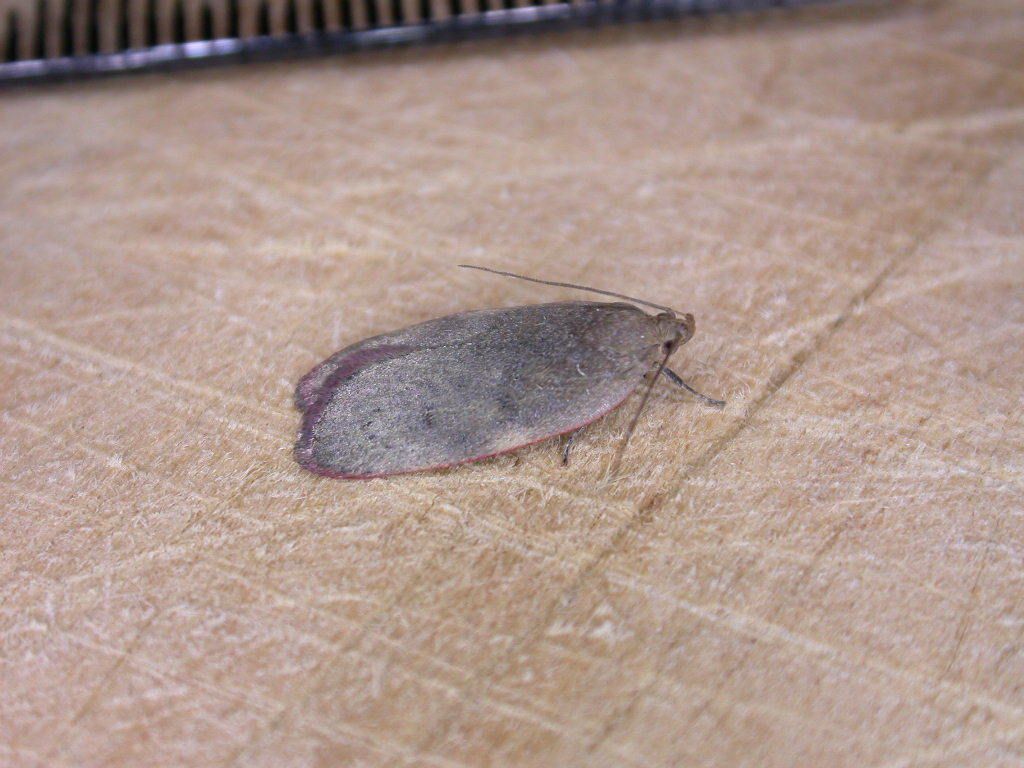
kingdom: Animalia
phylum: Arthropoda
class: Insecta
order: Lepidoptera
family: Depressariidae
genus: Phaeosaces
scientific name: Phaeosaces coarctatella
